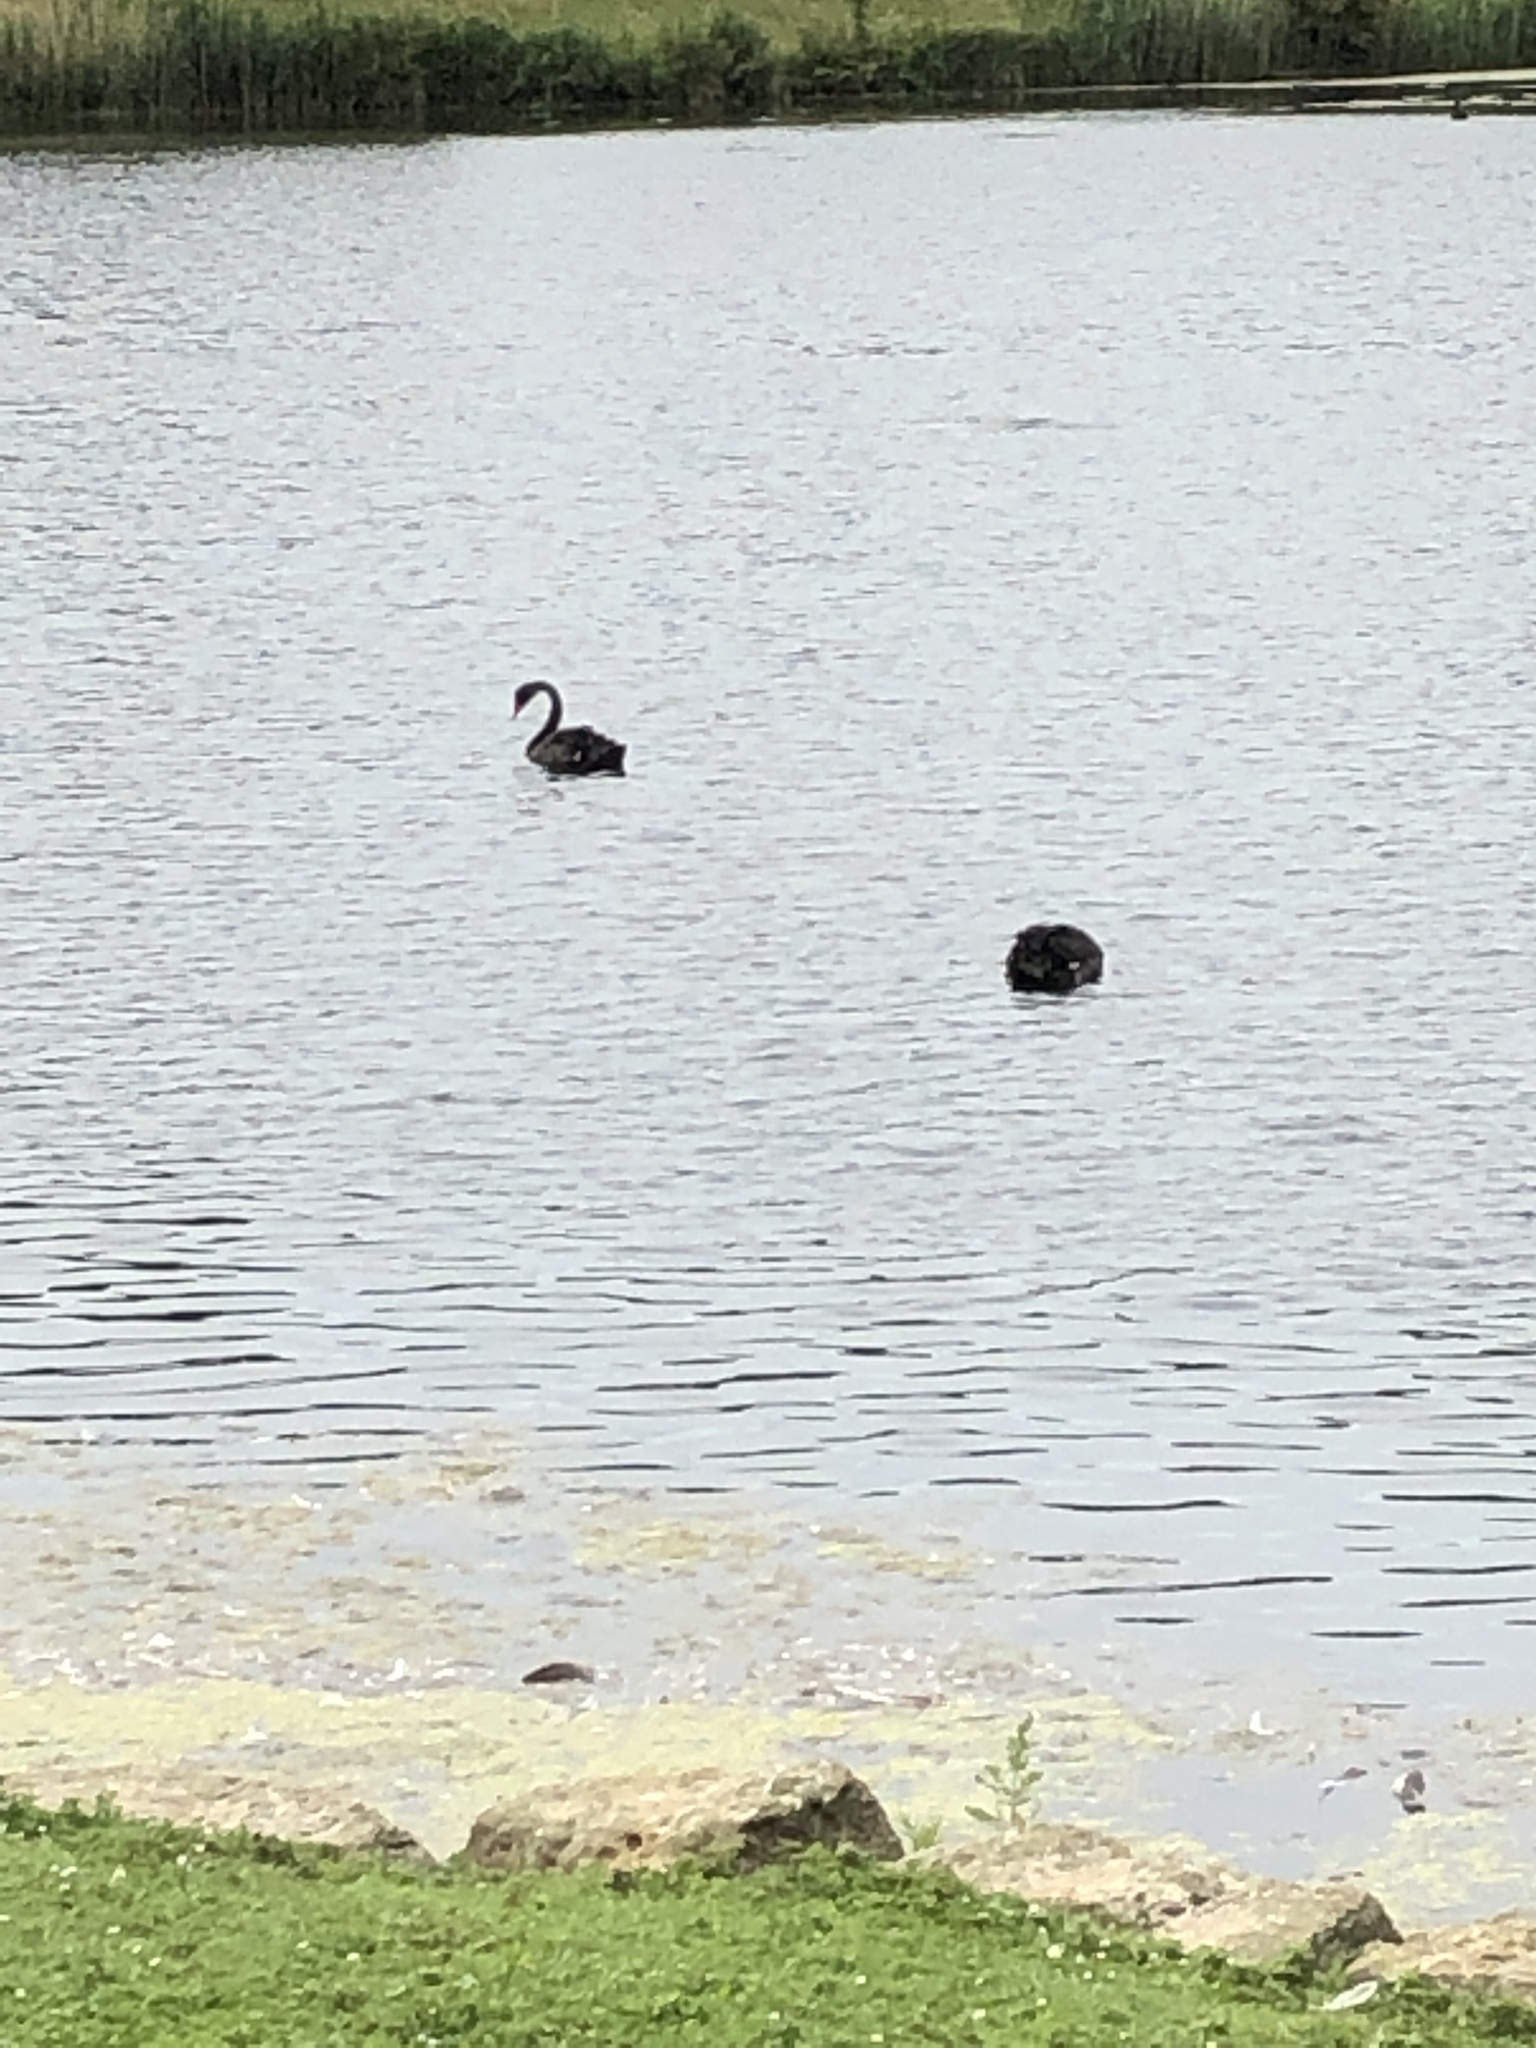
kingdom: Animalia
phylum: Chordata
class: Aves
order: Anseriformes
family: Anatidae
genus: Cygnus
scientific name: Cygnus atratus
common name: Black swan
